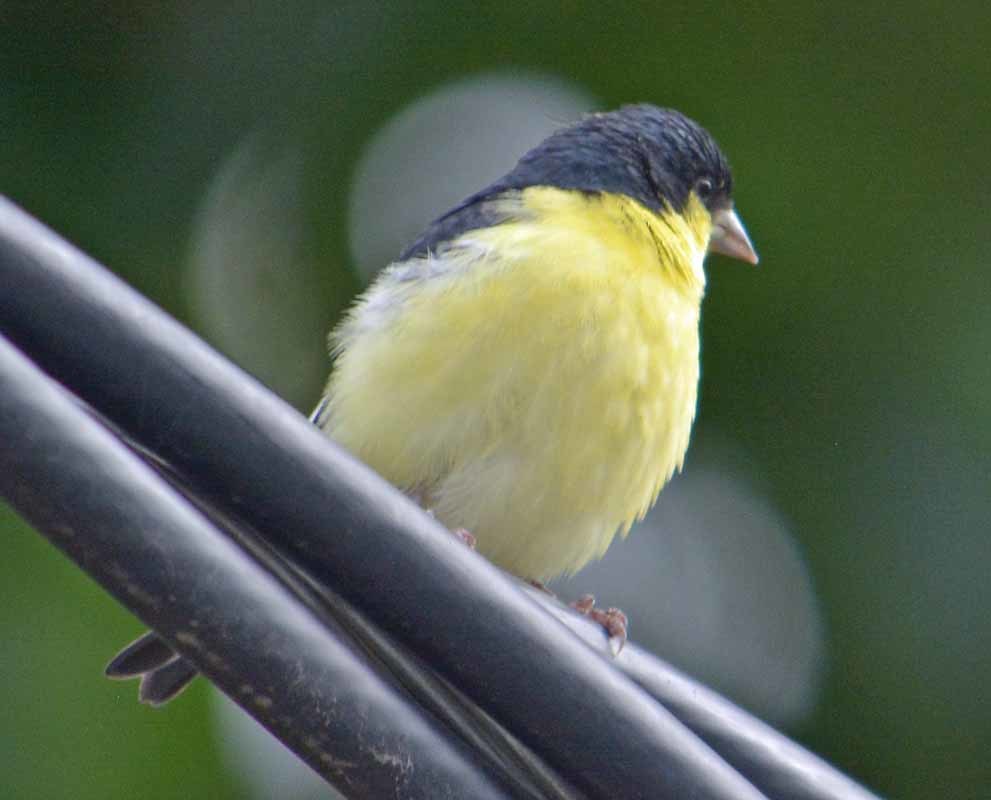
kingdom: Animalia
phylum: Chordata
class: Aves
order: Passeriformes
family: Fringillidae
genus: Spinus
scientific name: Spinus psaltria
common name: Lesser goldfinch
